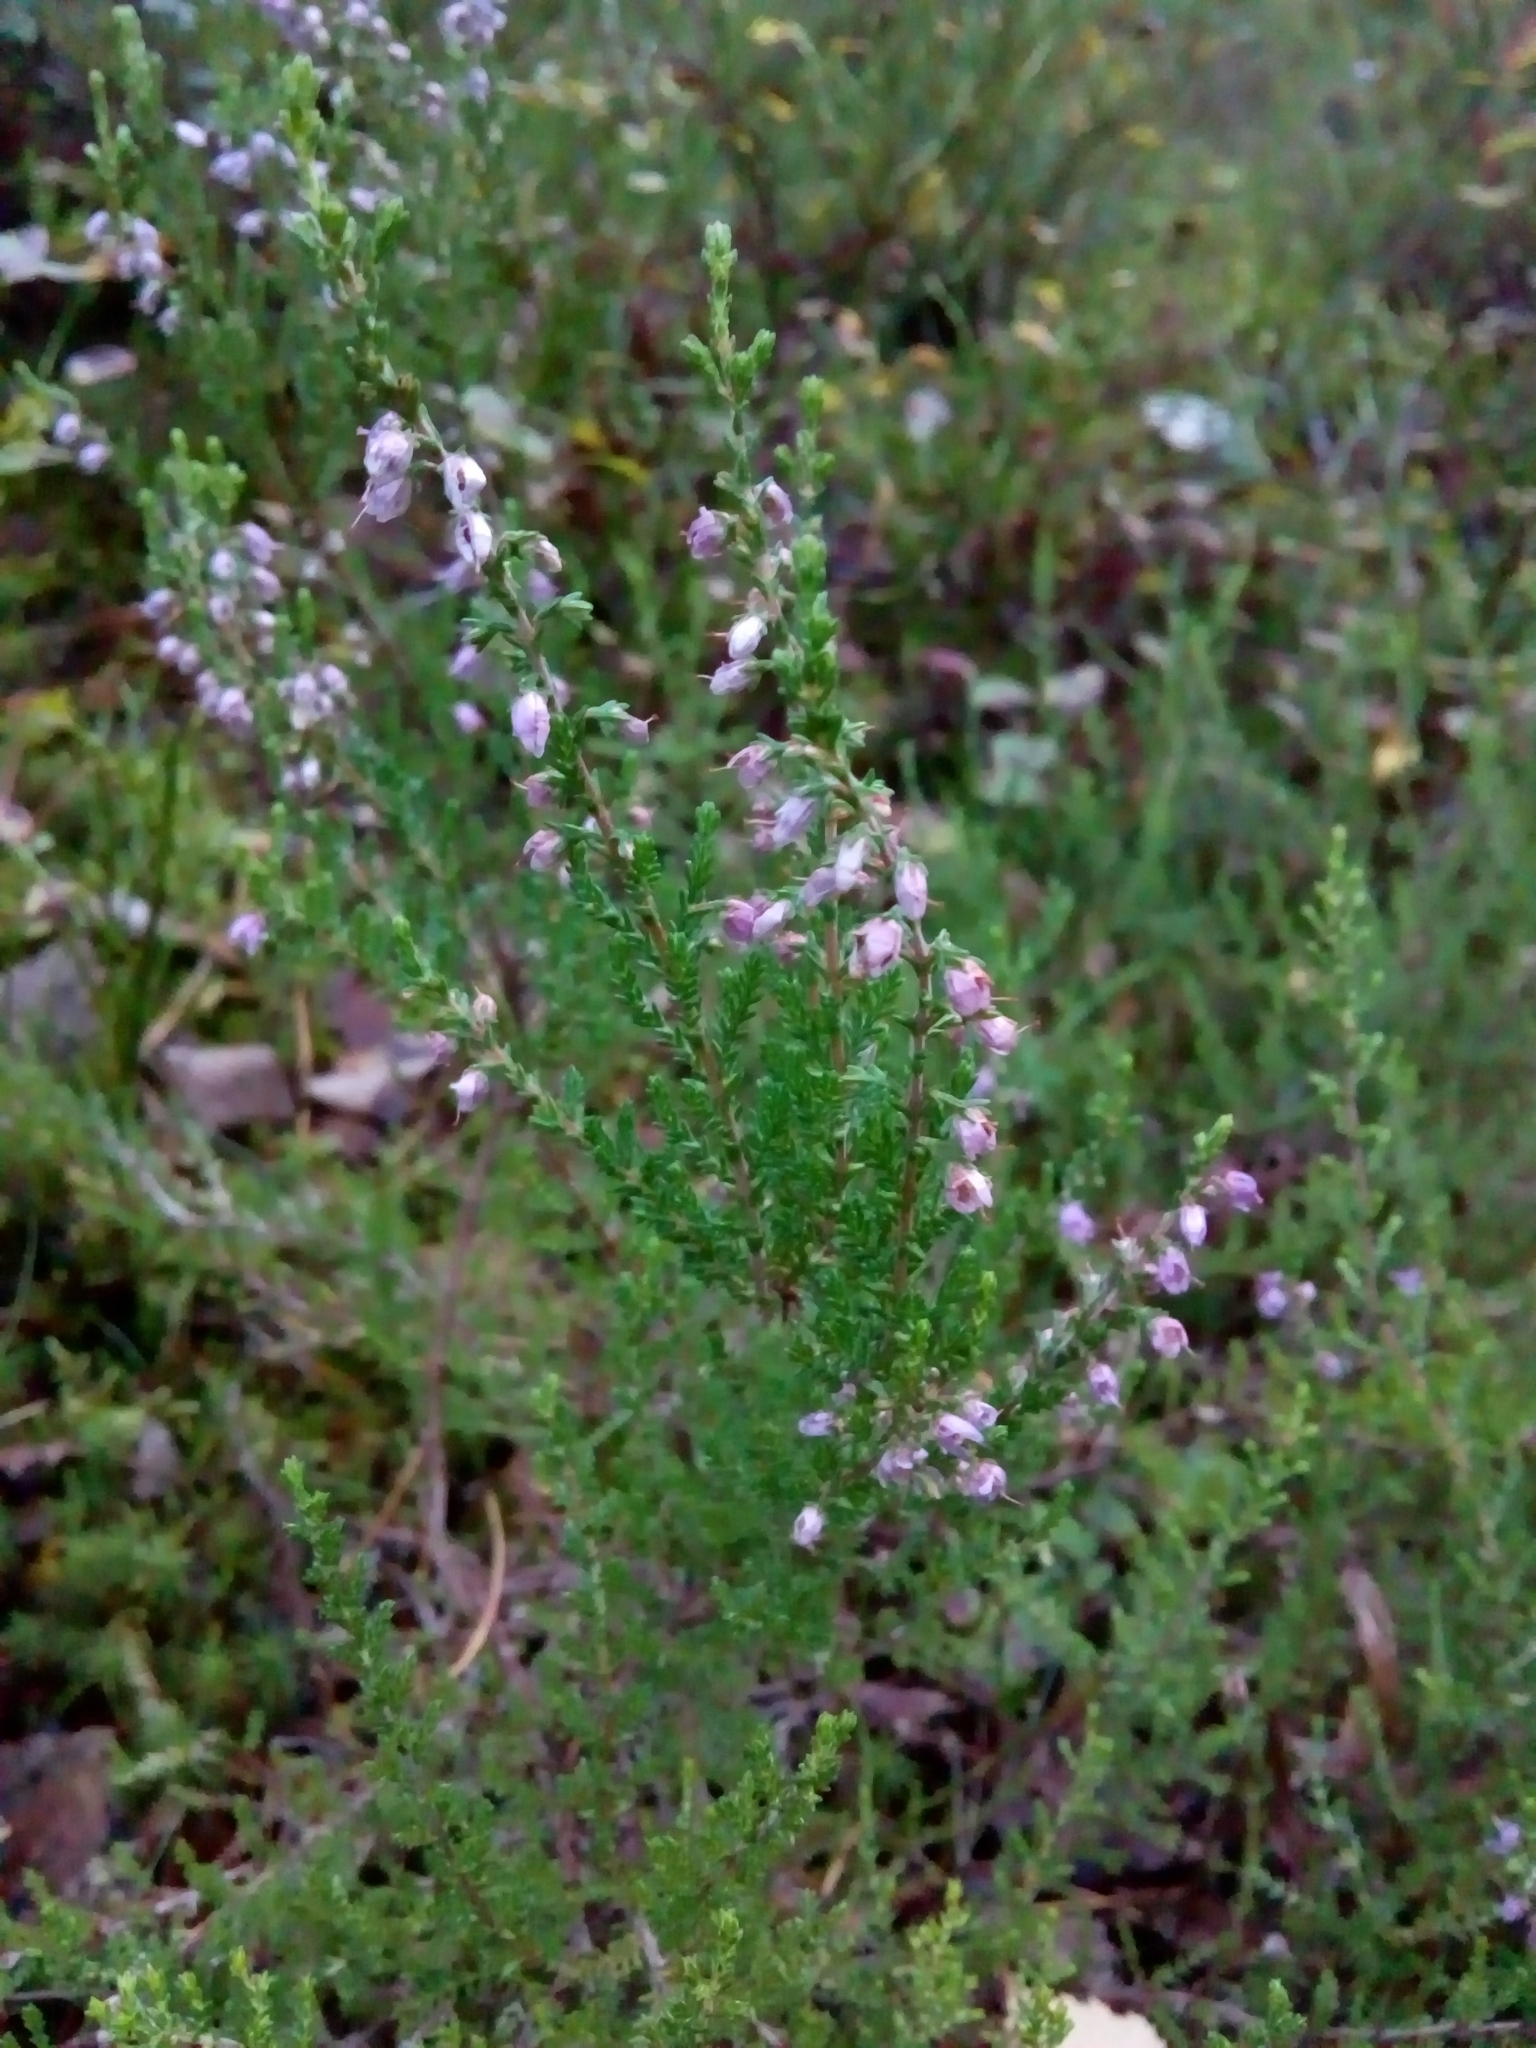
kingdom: Plantae
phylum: Tracheophyta
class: Magnoliopsida
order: Ericales
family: Ericaceae
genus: Calluna
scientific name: Calluna vulgaris
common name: Heather
